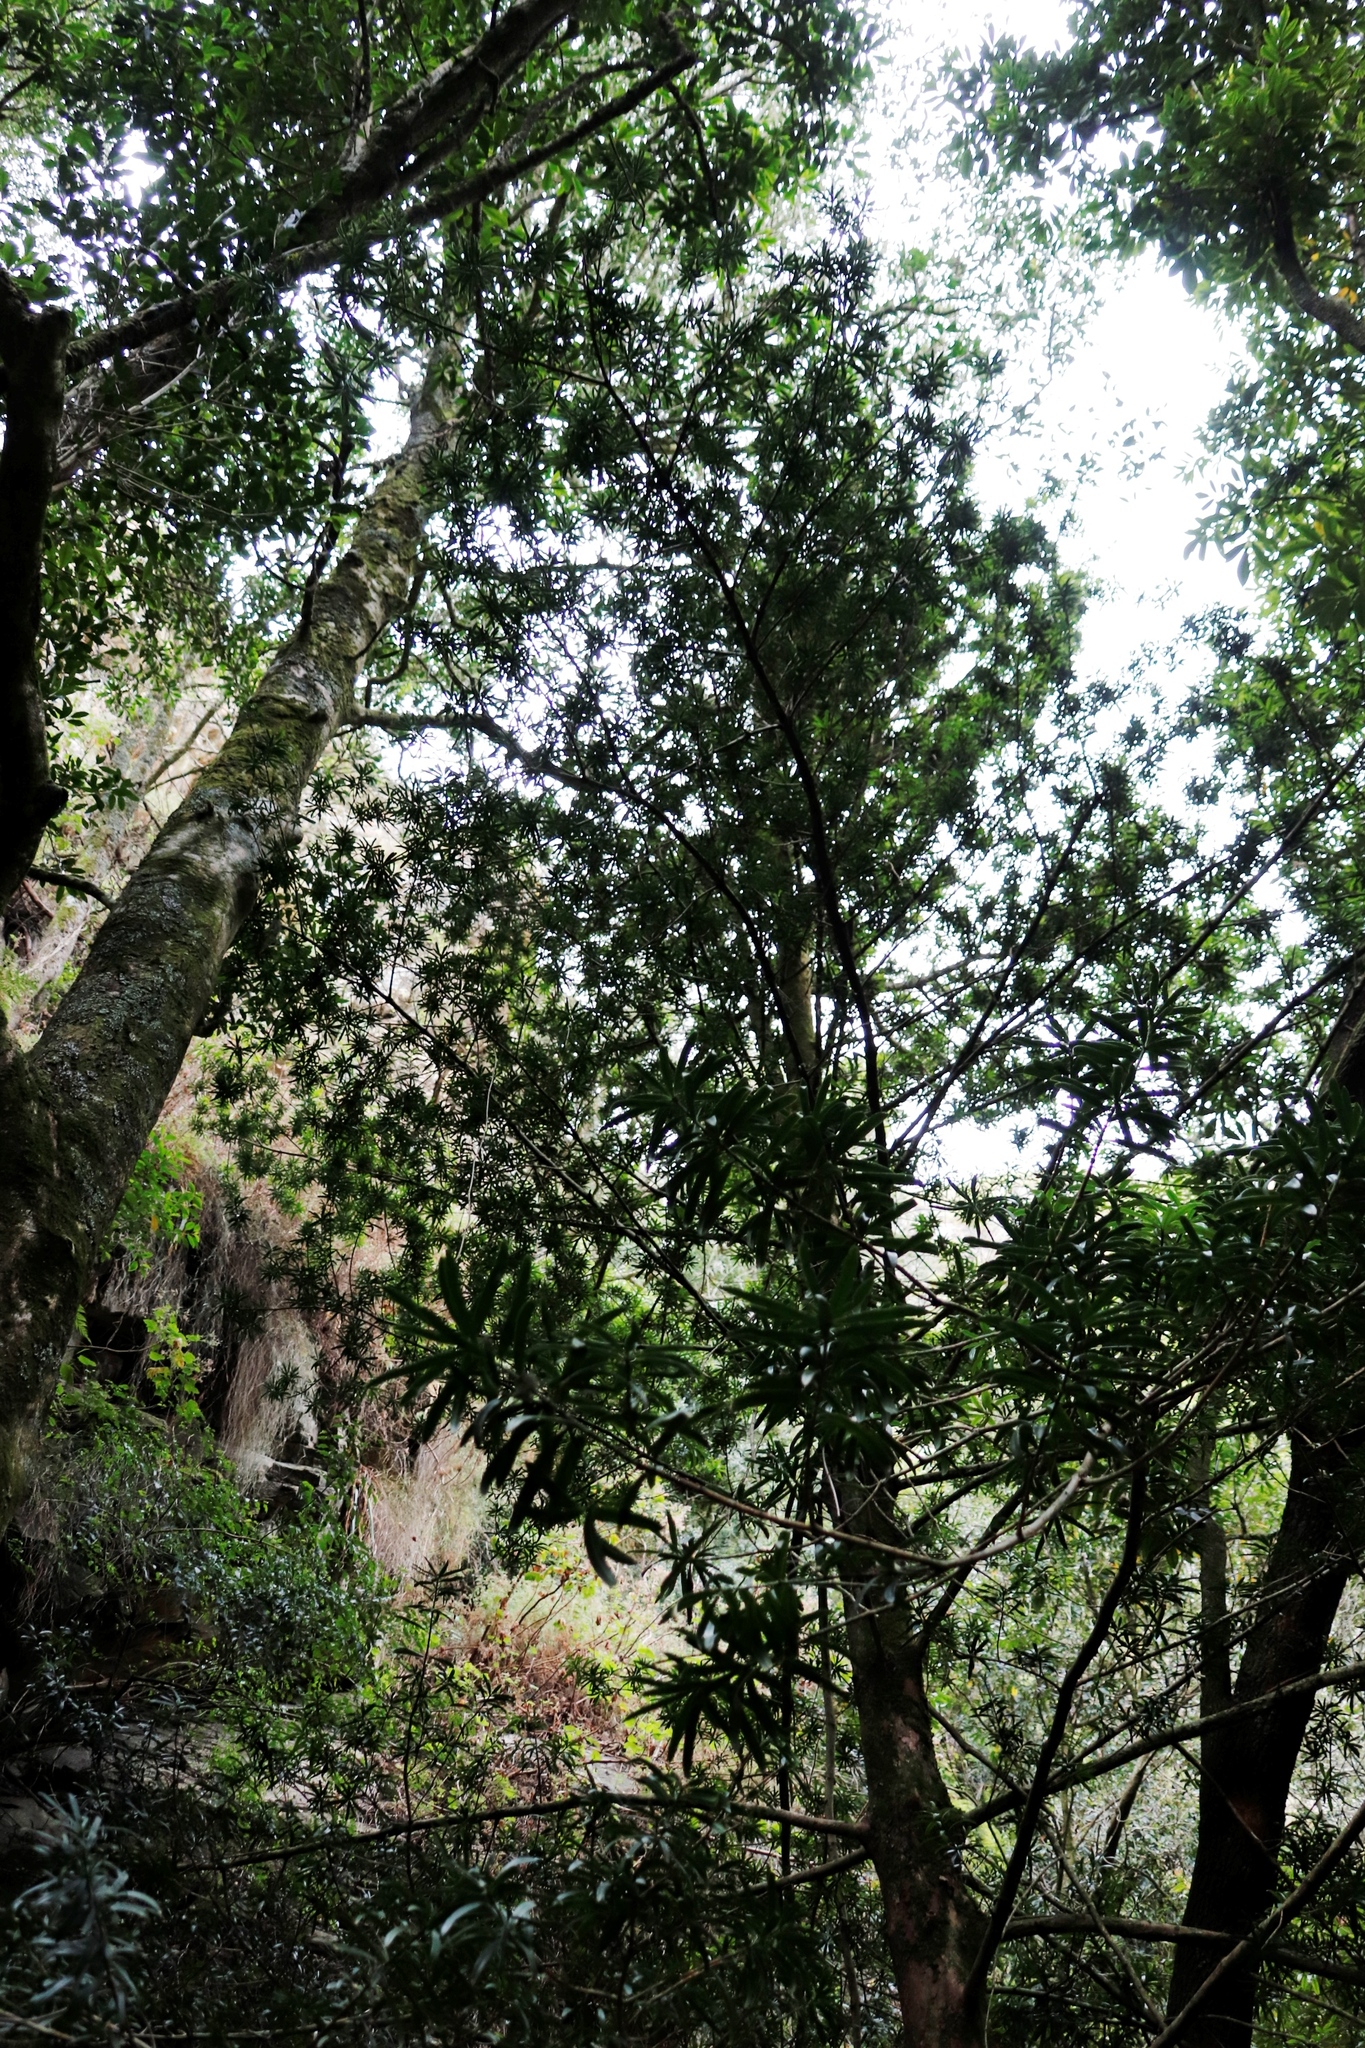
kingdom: Plantae
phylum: Tracheophyta
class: Pinopsida
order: Pinales
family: Podocarpaceae
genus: Podocarpus
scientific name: Podocarpus latifolius
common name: True yellowwood
